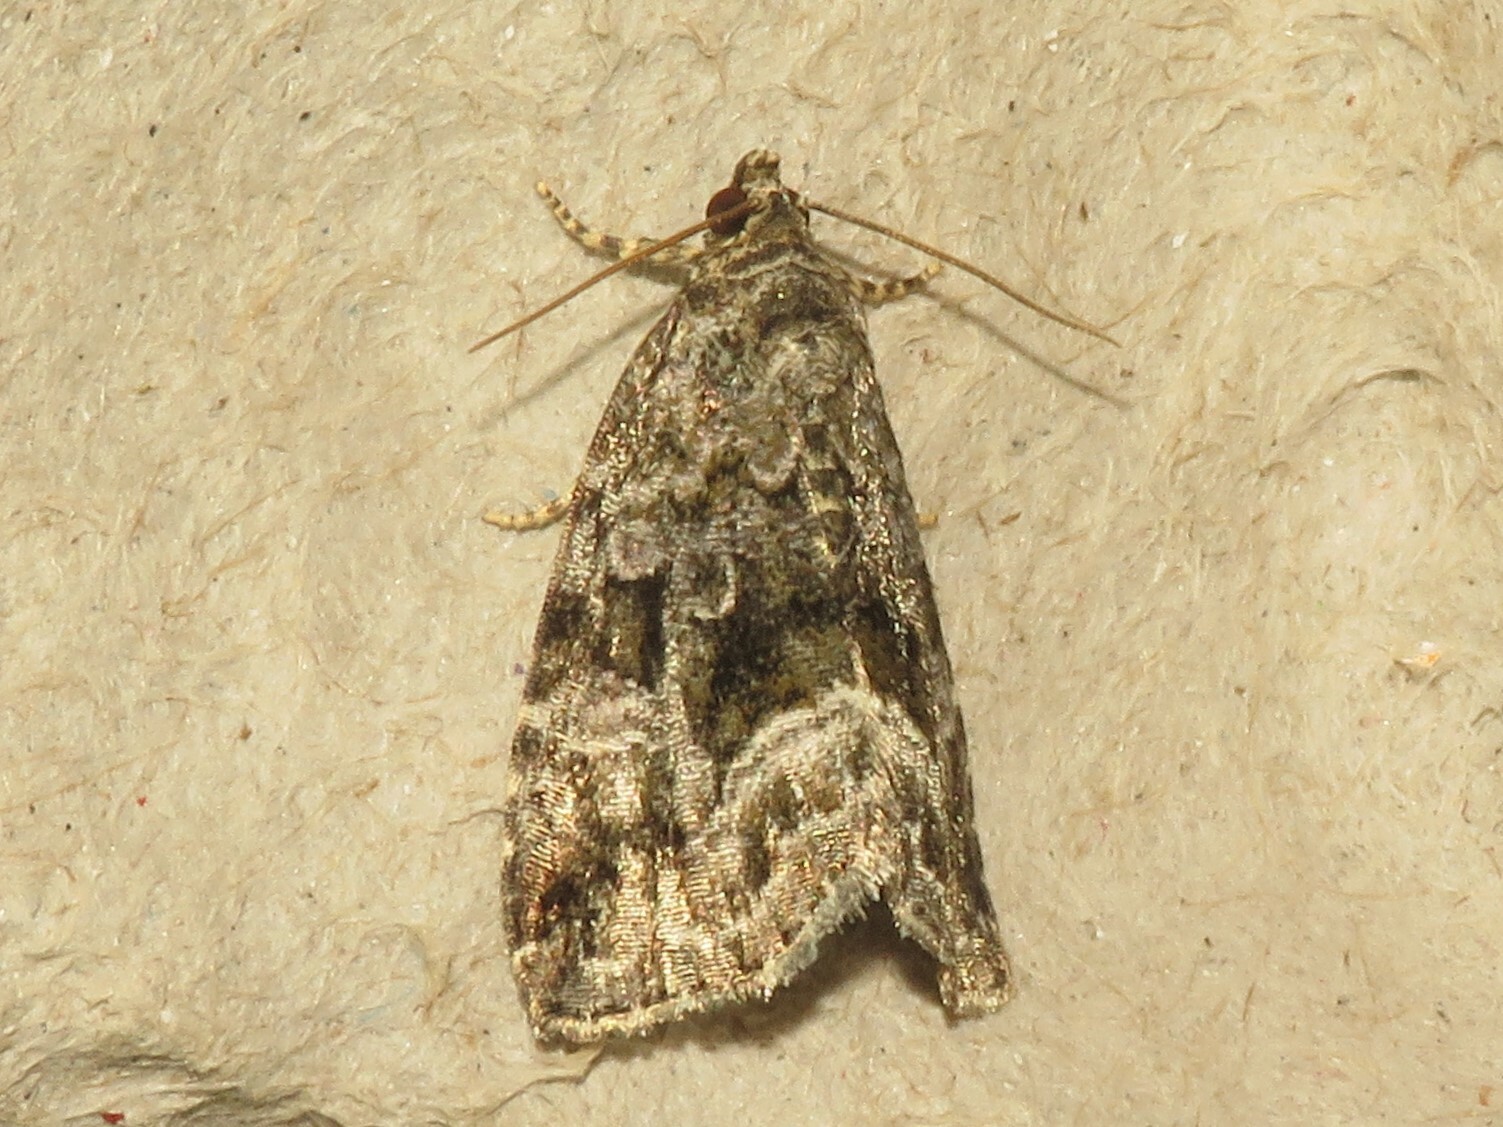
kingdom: Animalia
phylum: Arthropoda
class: Insecta
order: Lepidoptera
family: Noctuidae
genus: Protodeltote
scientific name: Protodeltote muscosula
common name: Large mossy glyph
